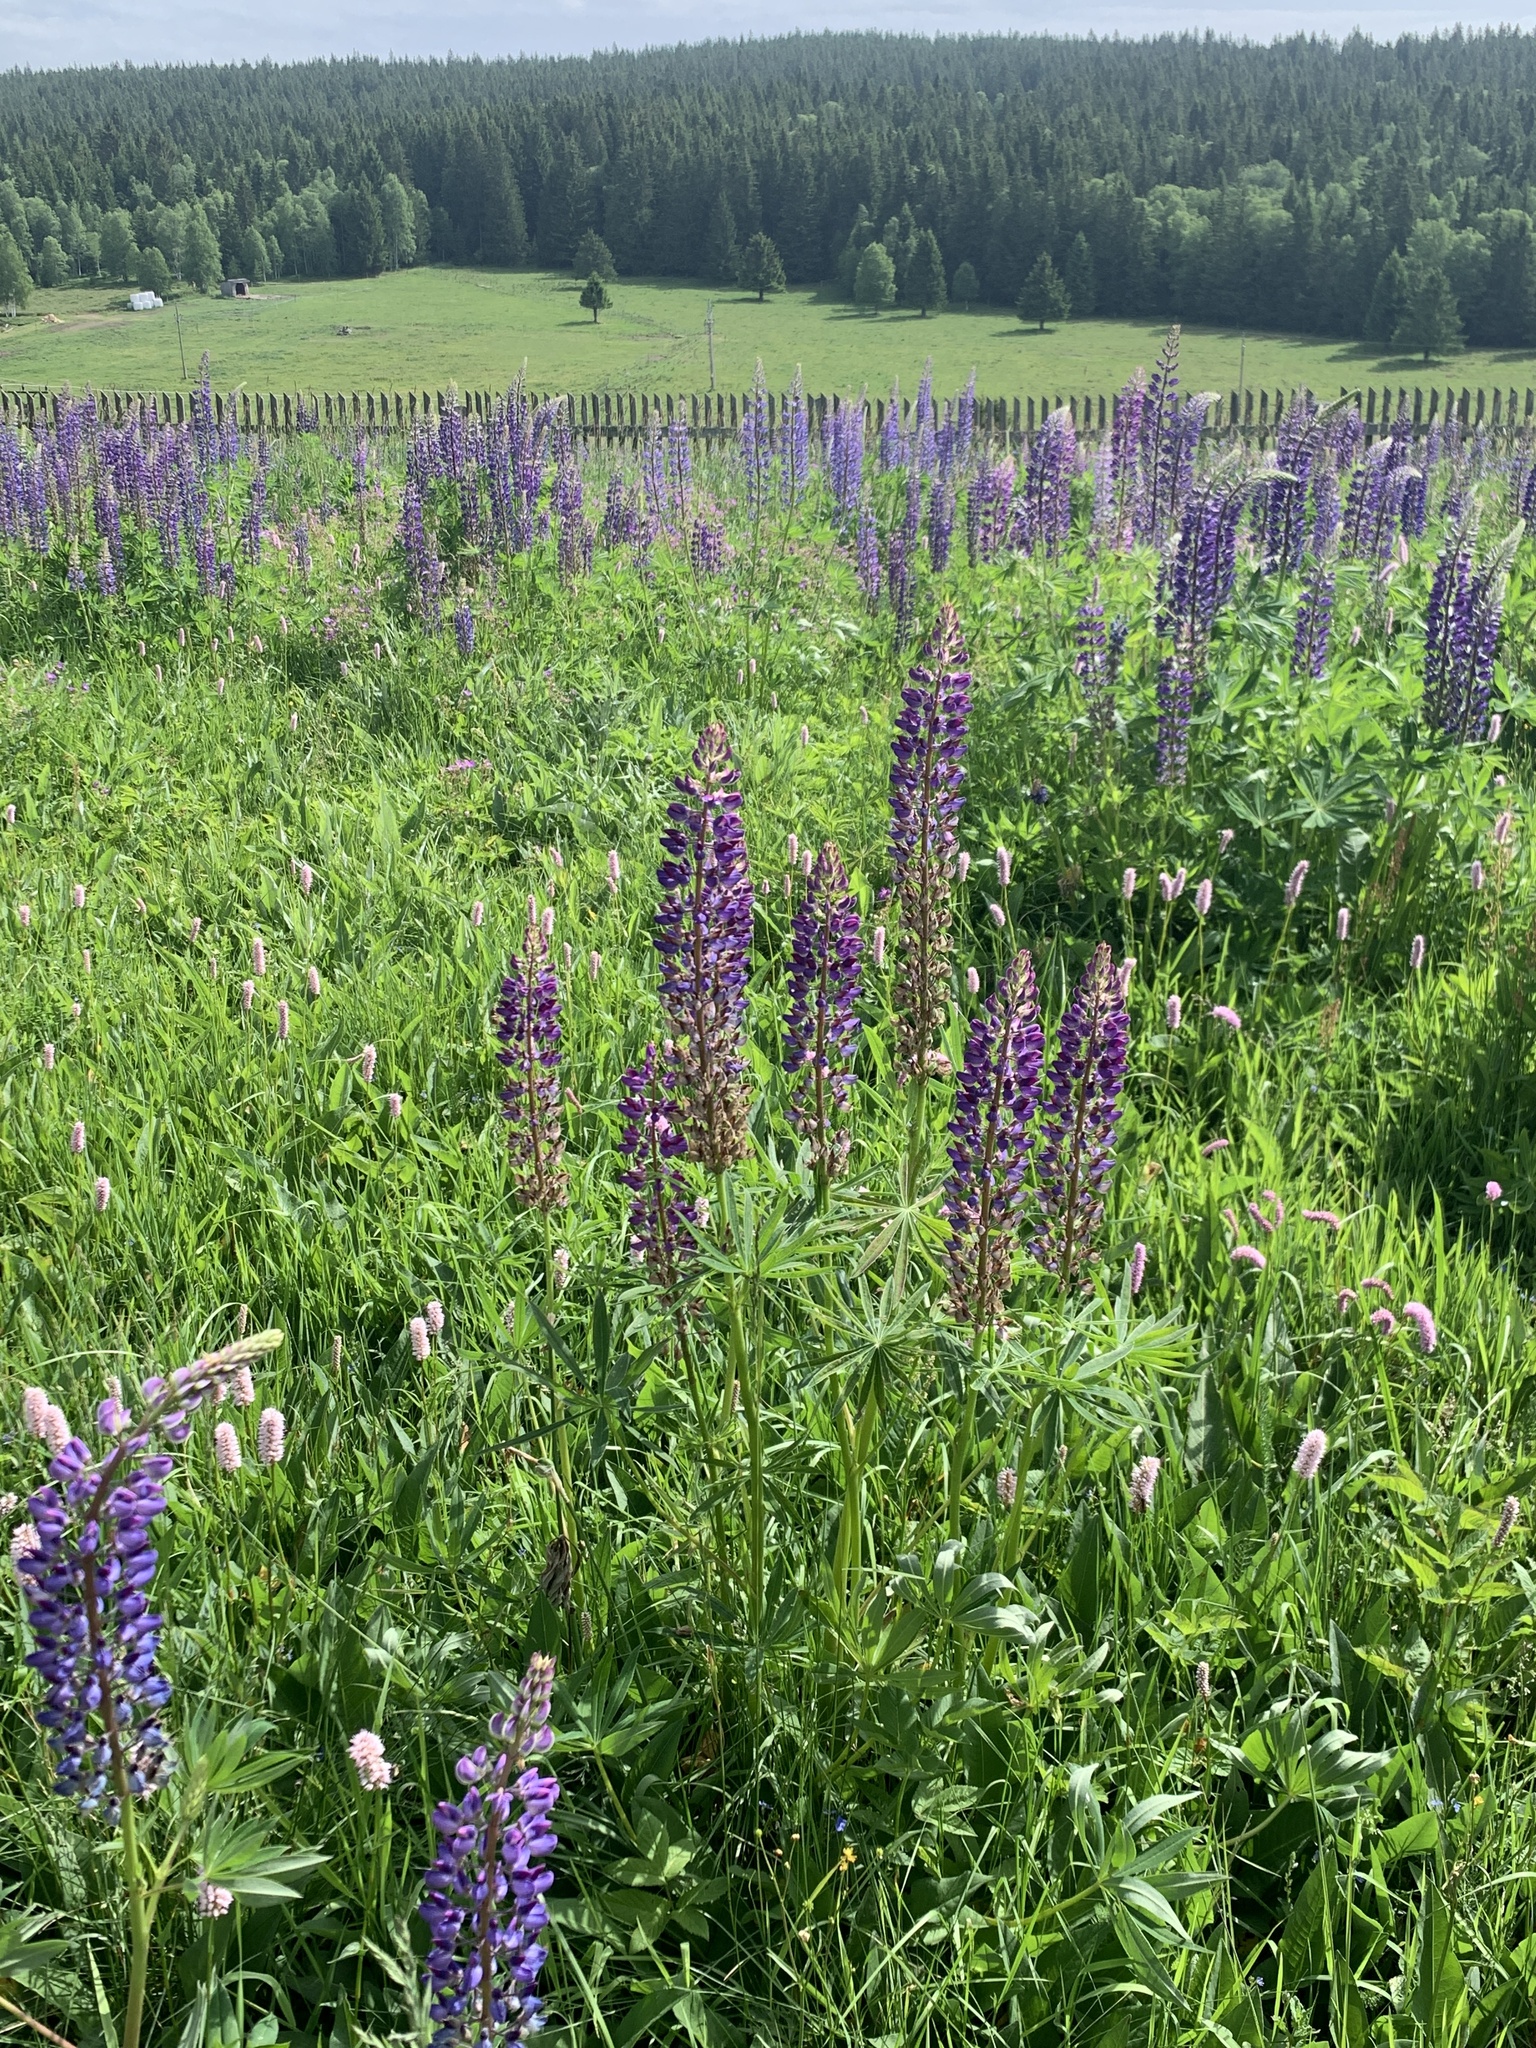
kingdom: Plantae
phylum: Tracheophyta
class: Magnoliopsida
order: Fabales
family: Fabaceae
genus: Lupinus
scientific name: Lupinus polyphyllus
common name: Garden lupin
